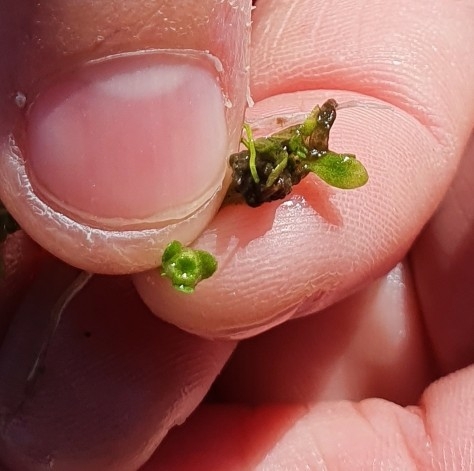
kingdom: Plantae
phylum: Tracheophyta
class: Magnoliopsida
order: Malpighiales
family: Elatinaceae
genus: Elatine
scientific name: Elatine hexandra
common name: Six-stamened waterwort
